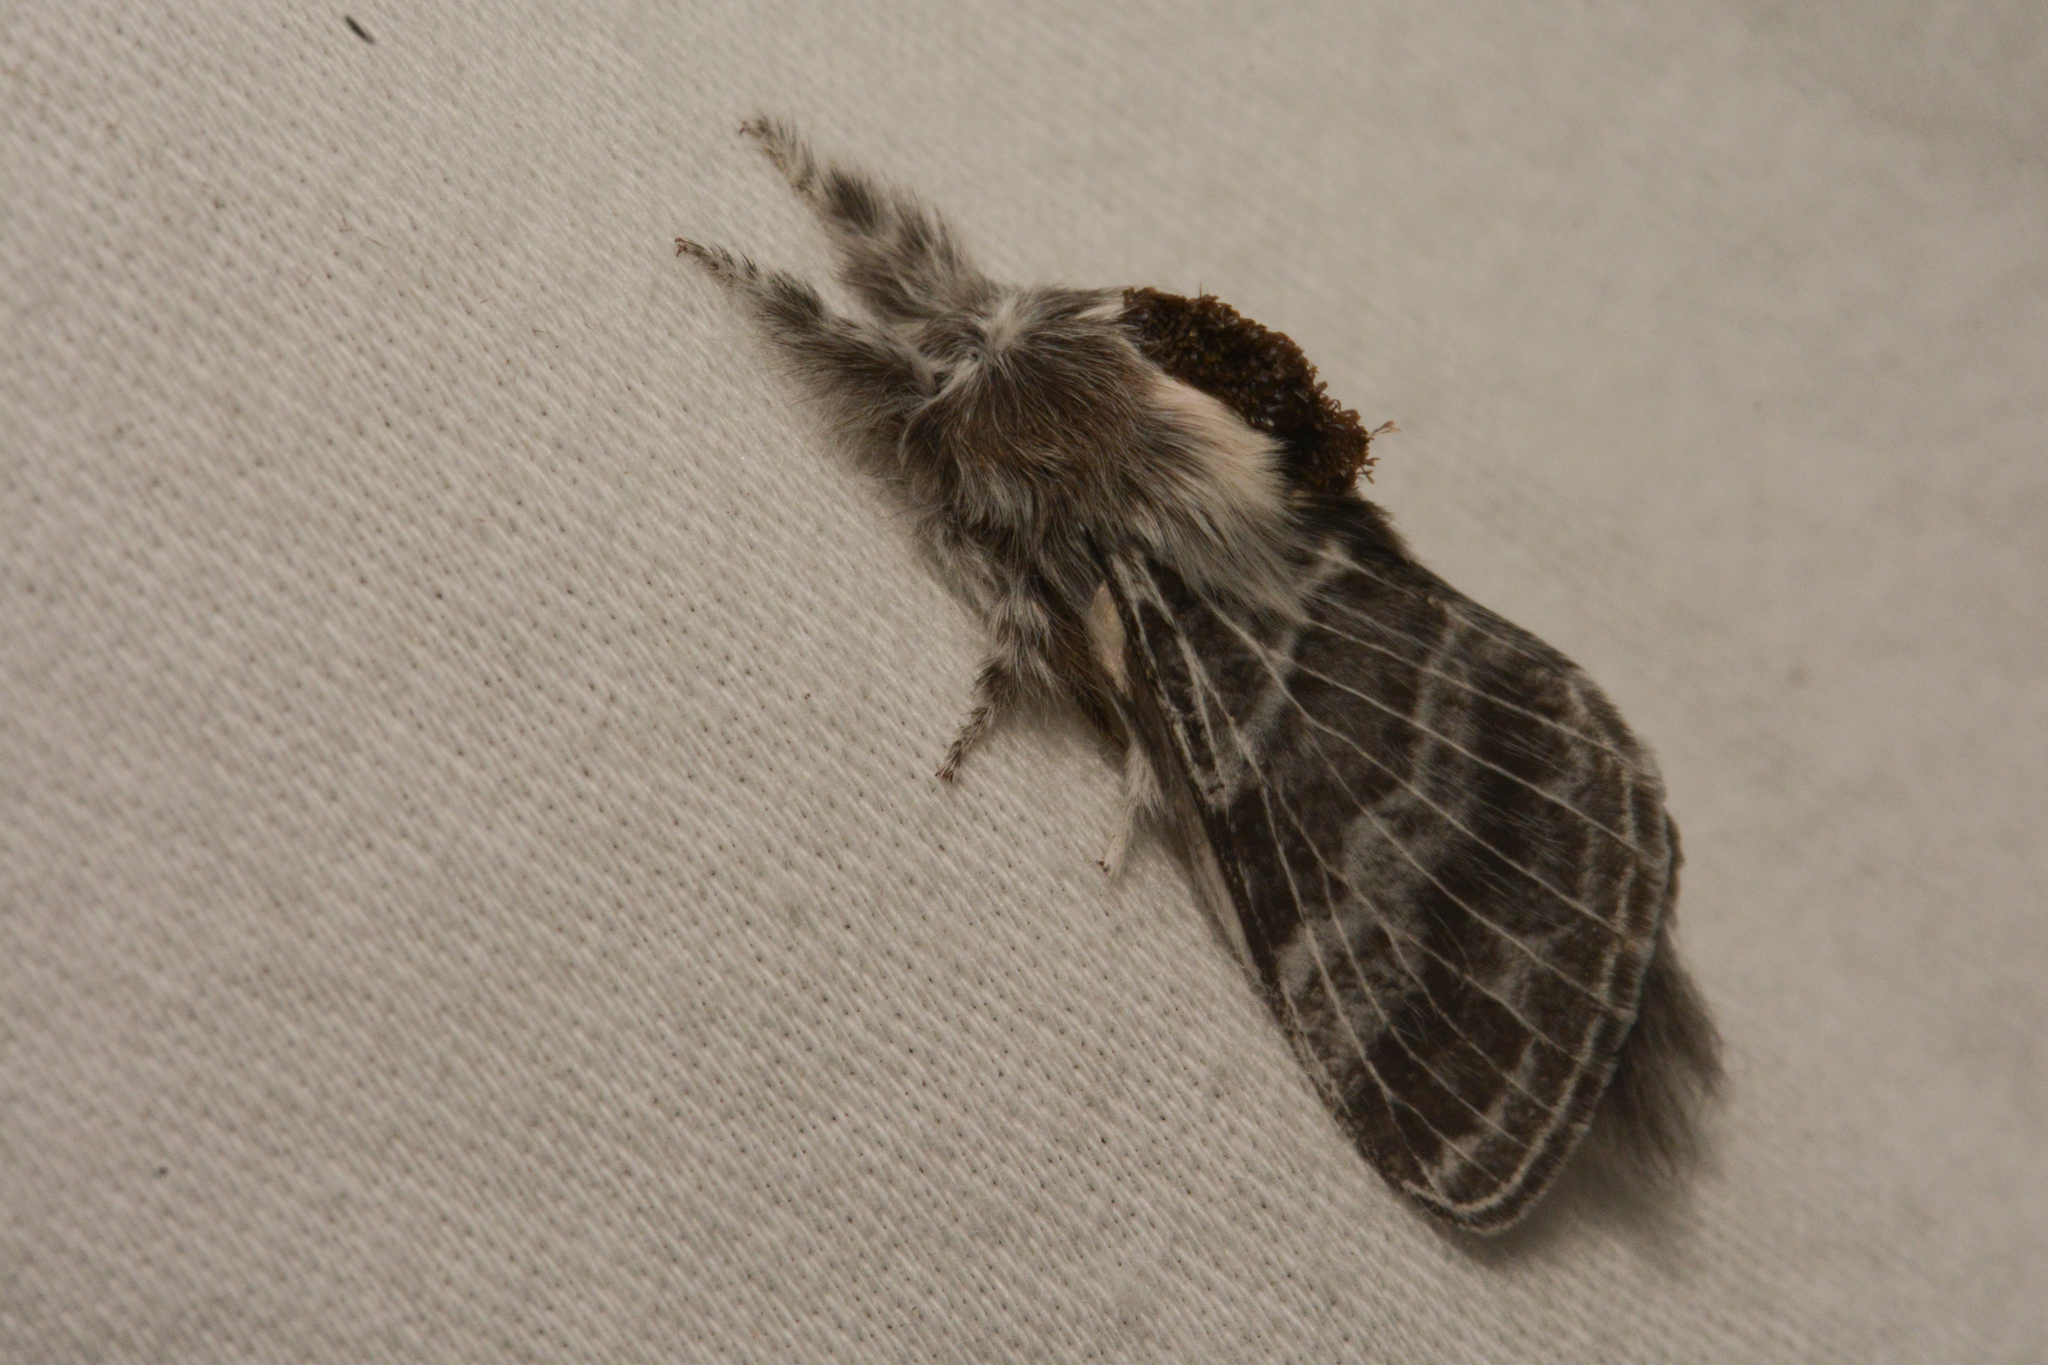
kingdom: Animalia
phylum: Arthropoda
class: Insecta
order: Lepidoptera
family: Lasiocampidae
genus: Tolype
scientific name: Tolype distincta
